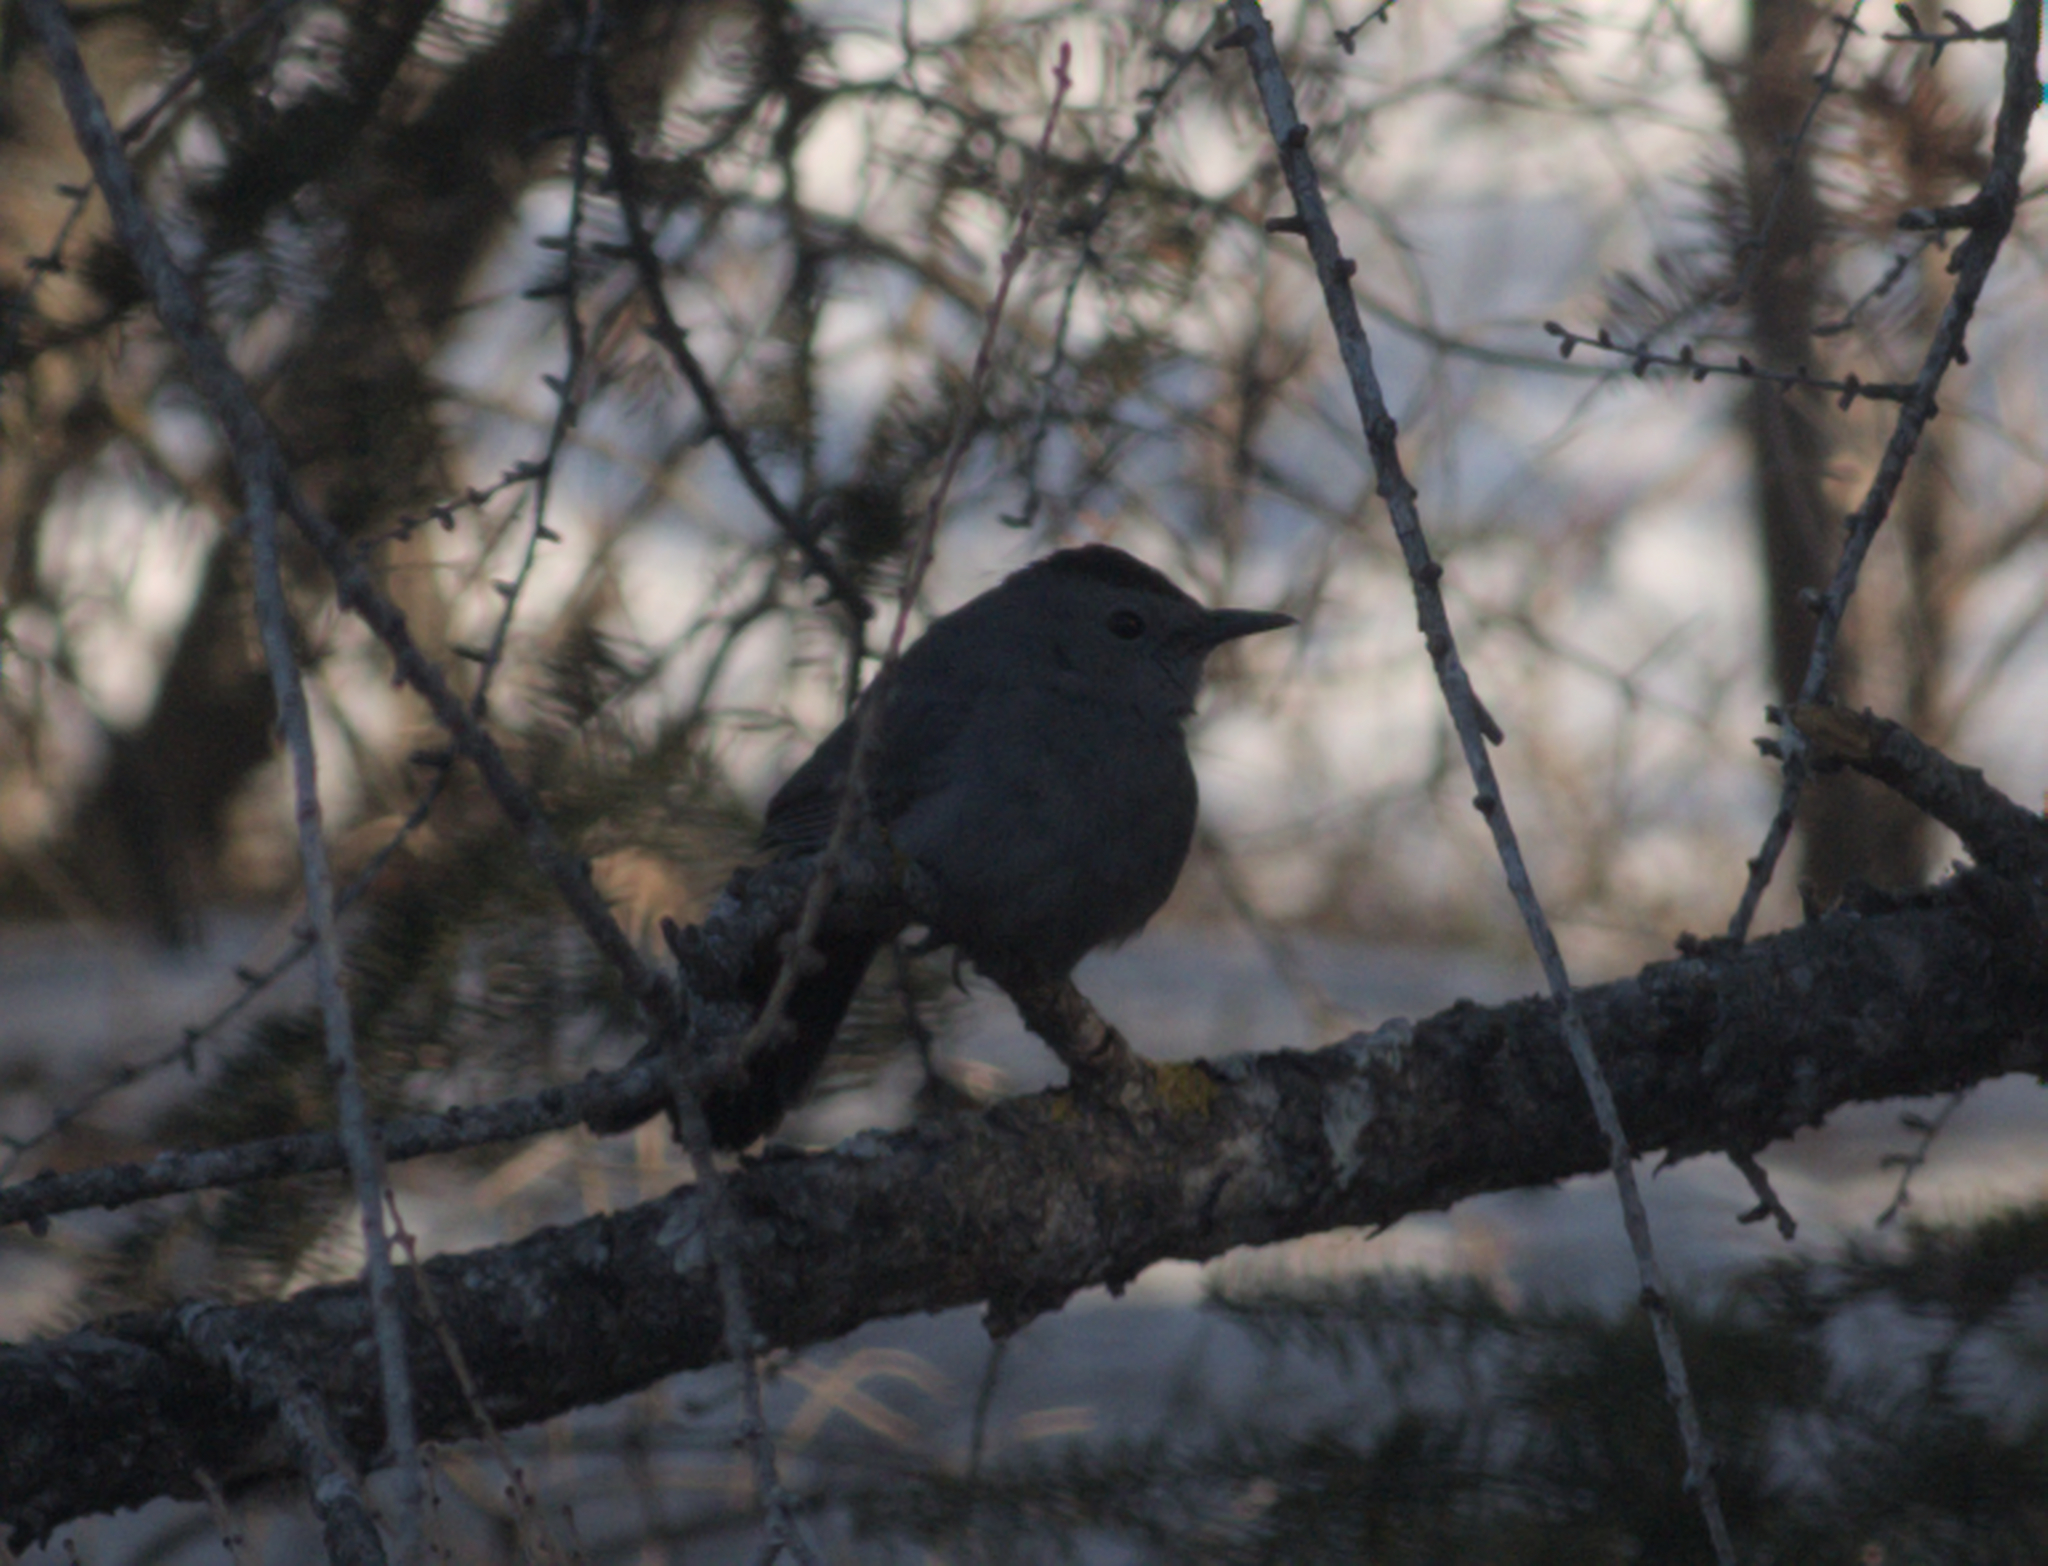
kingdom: Animalia
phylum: Chordata
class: Aves
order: Passeriformes
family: Mimidae
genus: Dumetella
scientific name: Dumetella carolinensis
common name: Gray catbird
